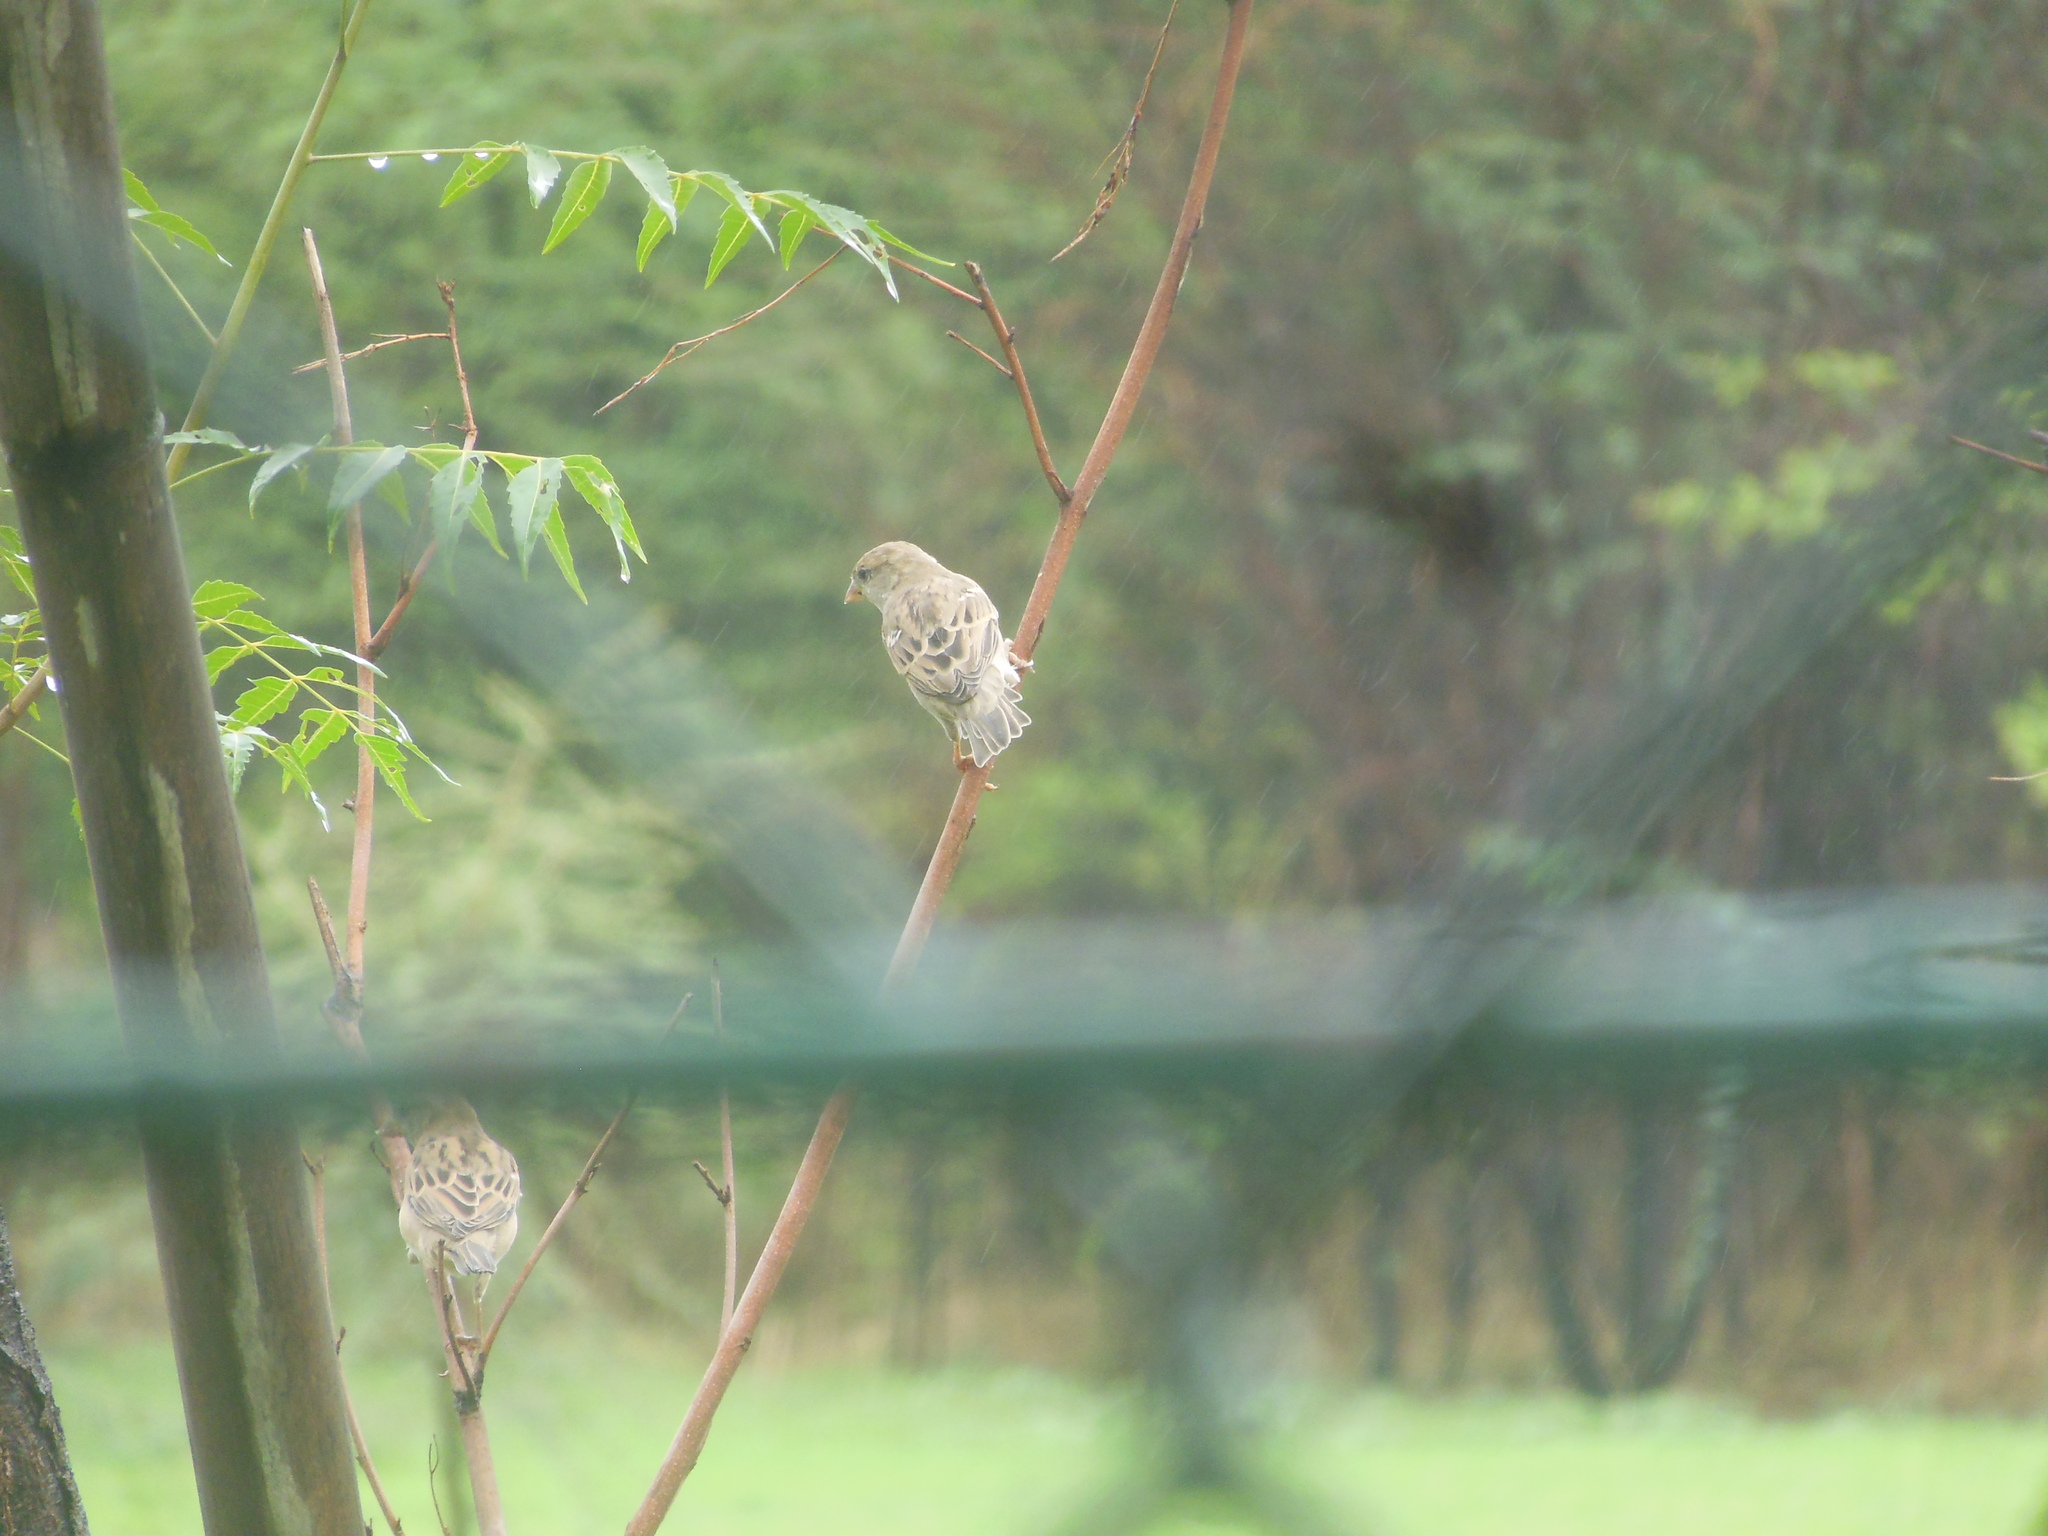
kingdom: Animalia
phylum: Chordata
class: Aves
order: Passeriformes
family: Passeridae
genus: Passer
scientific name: Passer domesticus
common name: House sparrow
